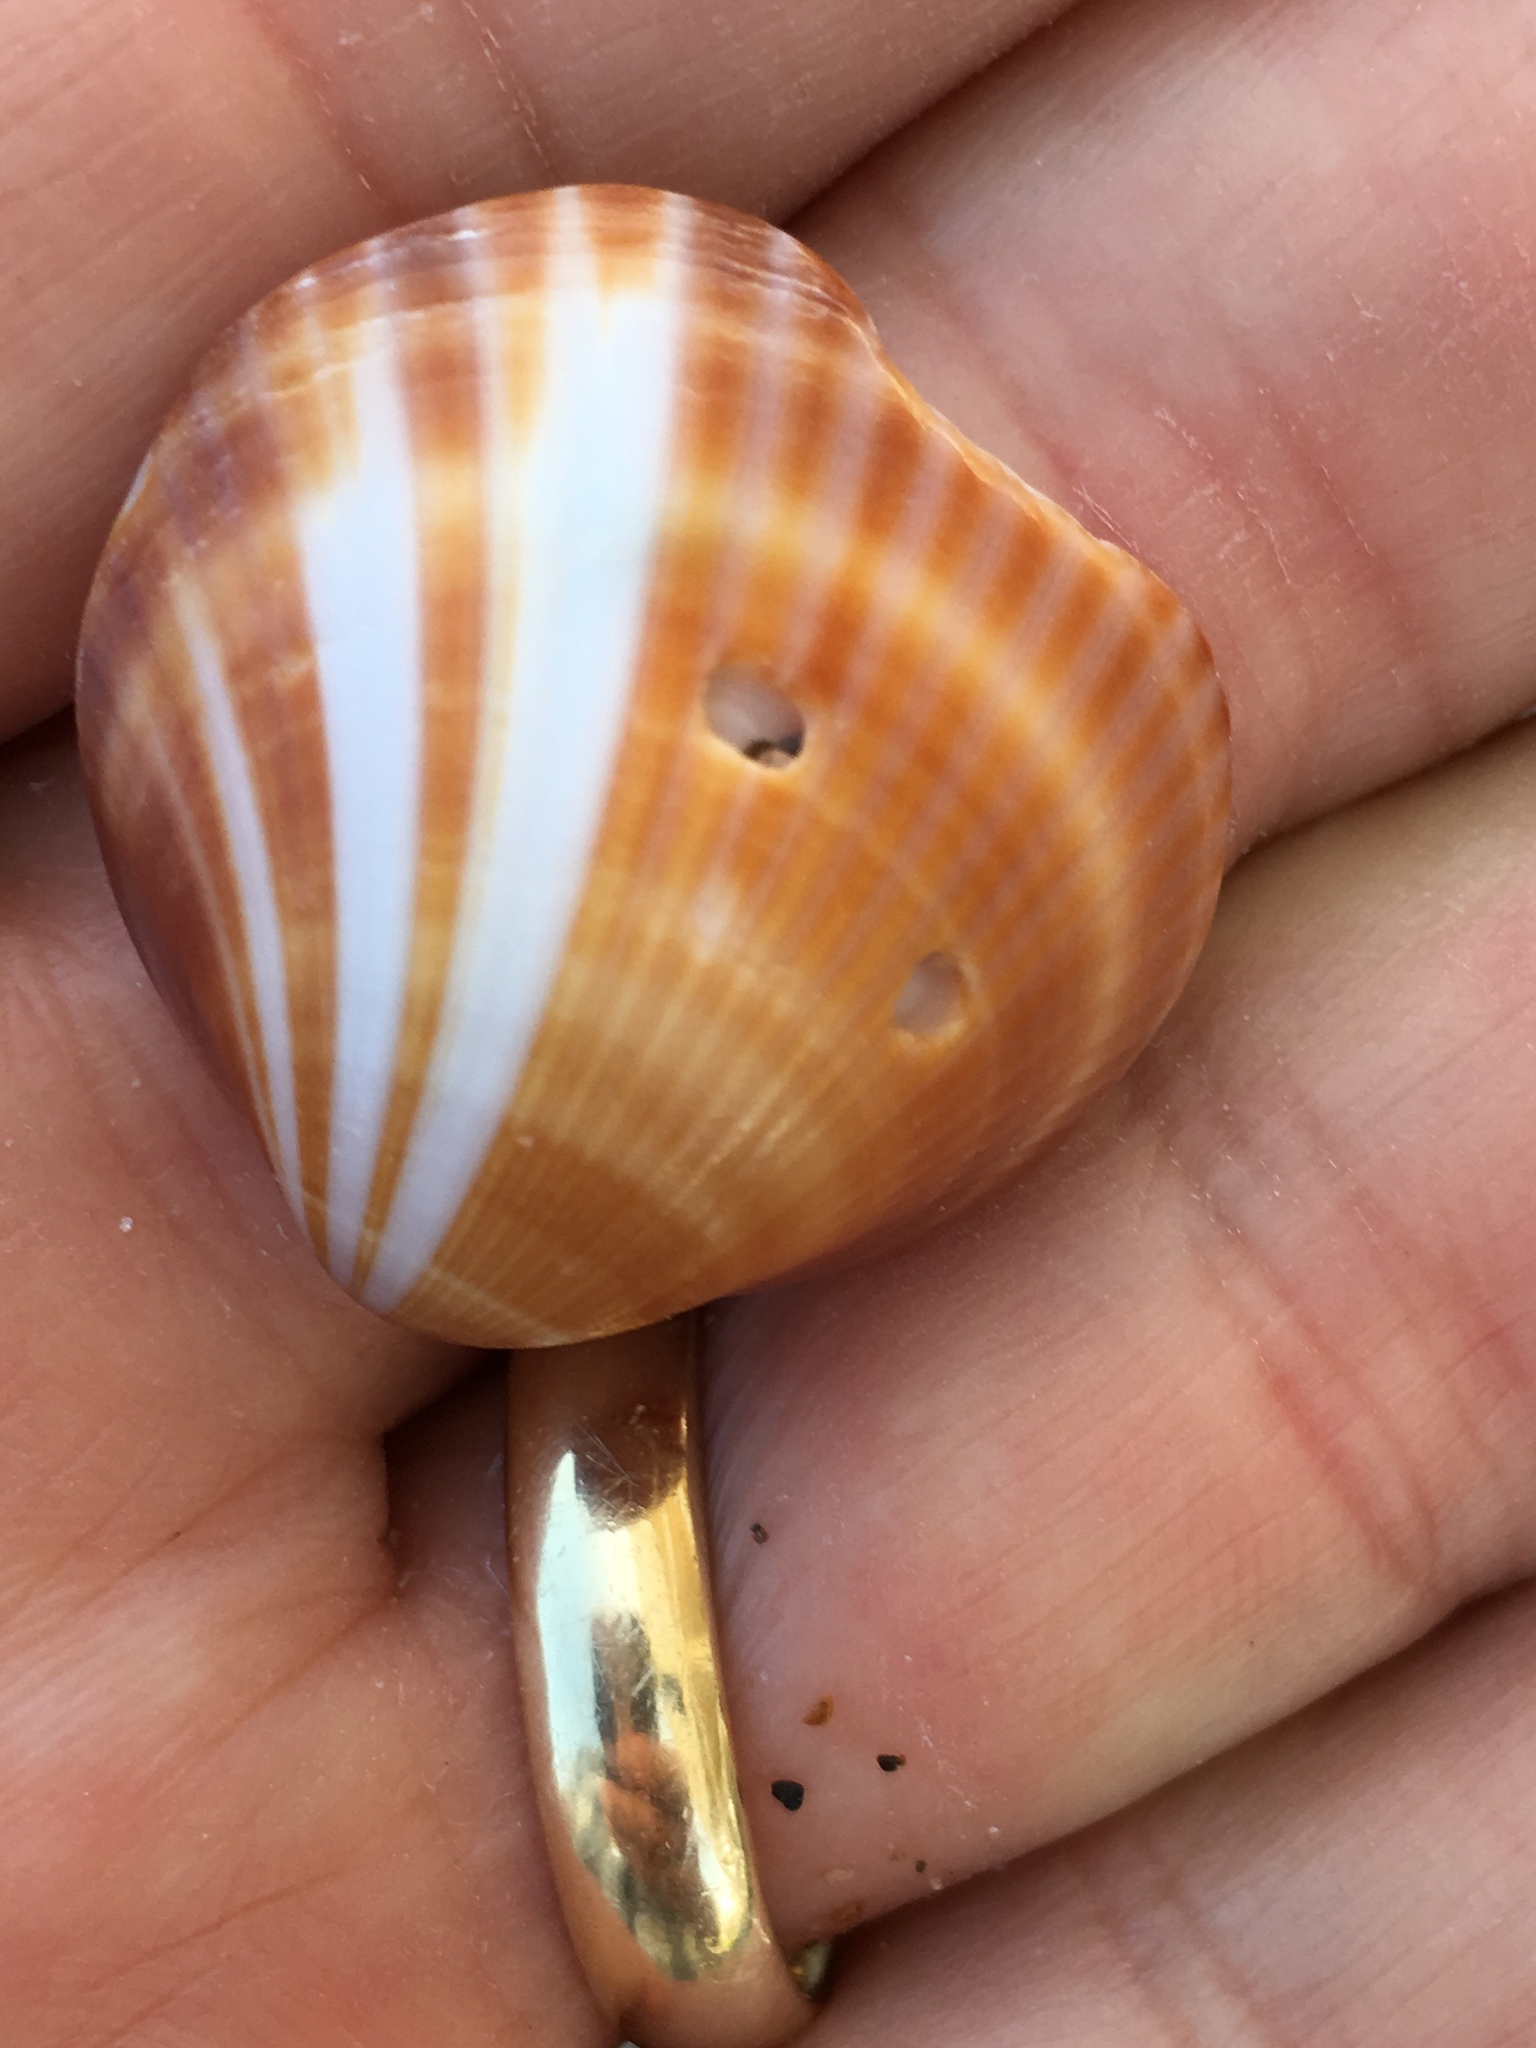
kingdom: Animalia
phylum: Mollusca
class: Bivalvia
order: Arcida
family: Glycymerididae
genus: Glycymeris
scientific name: Glycymeris spectralis
